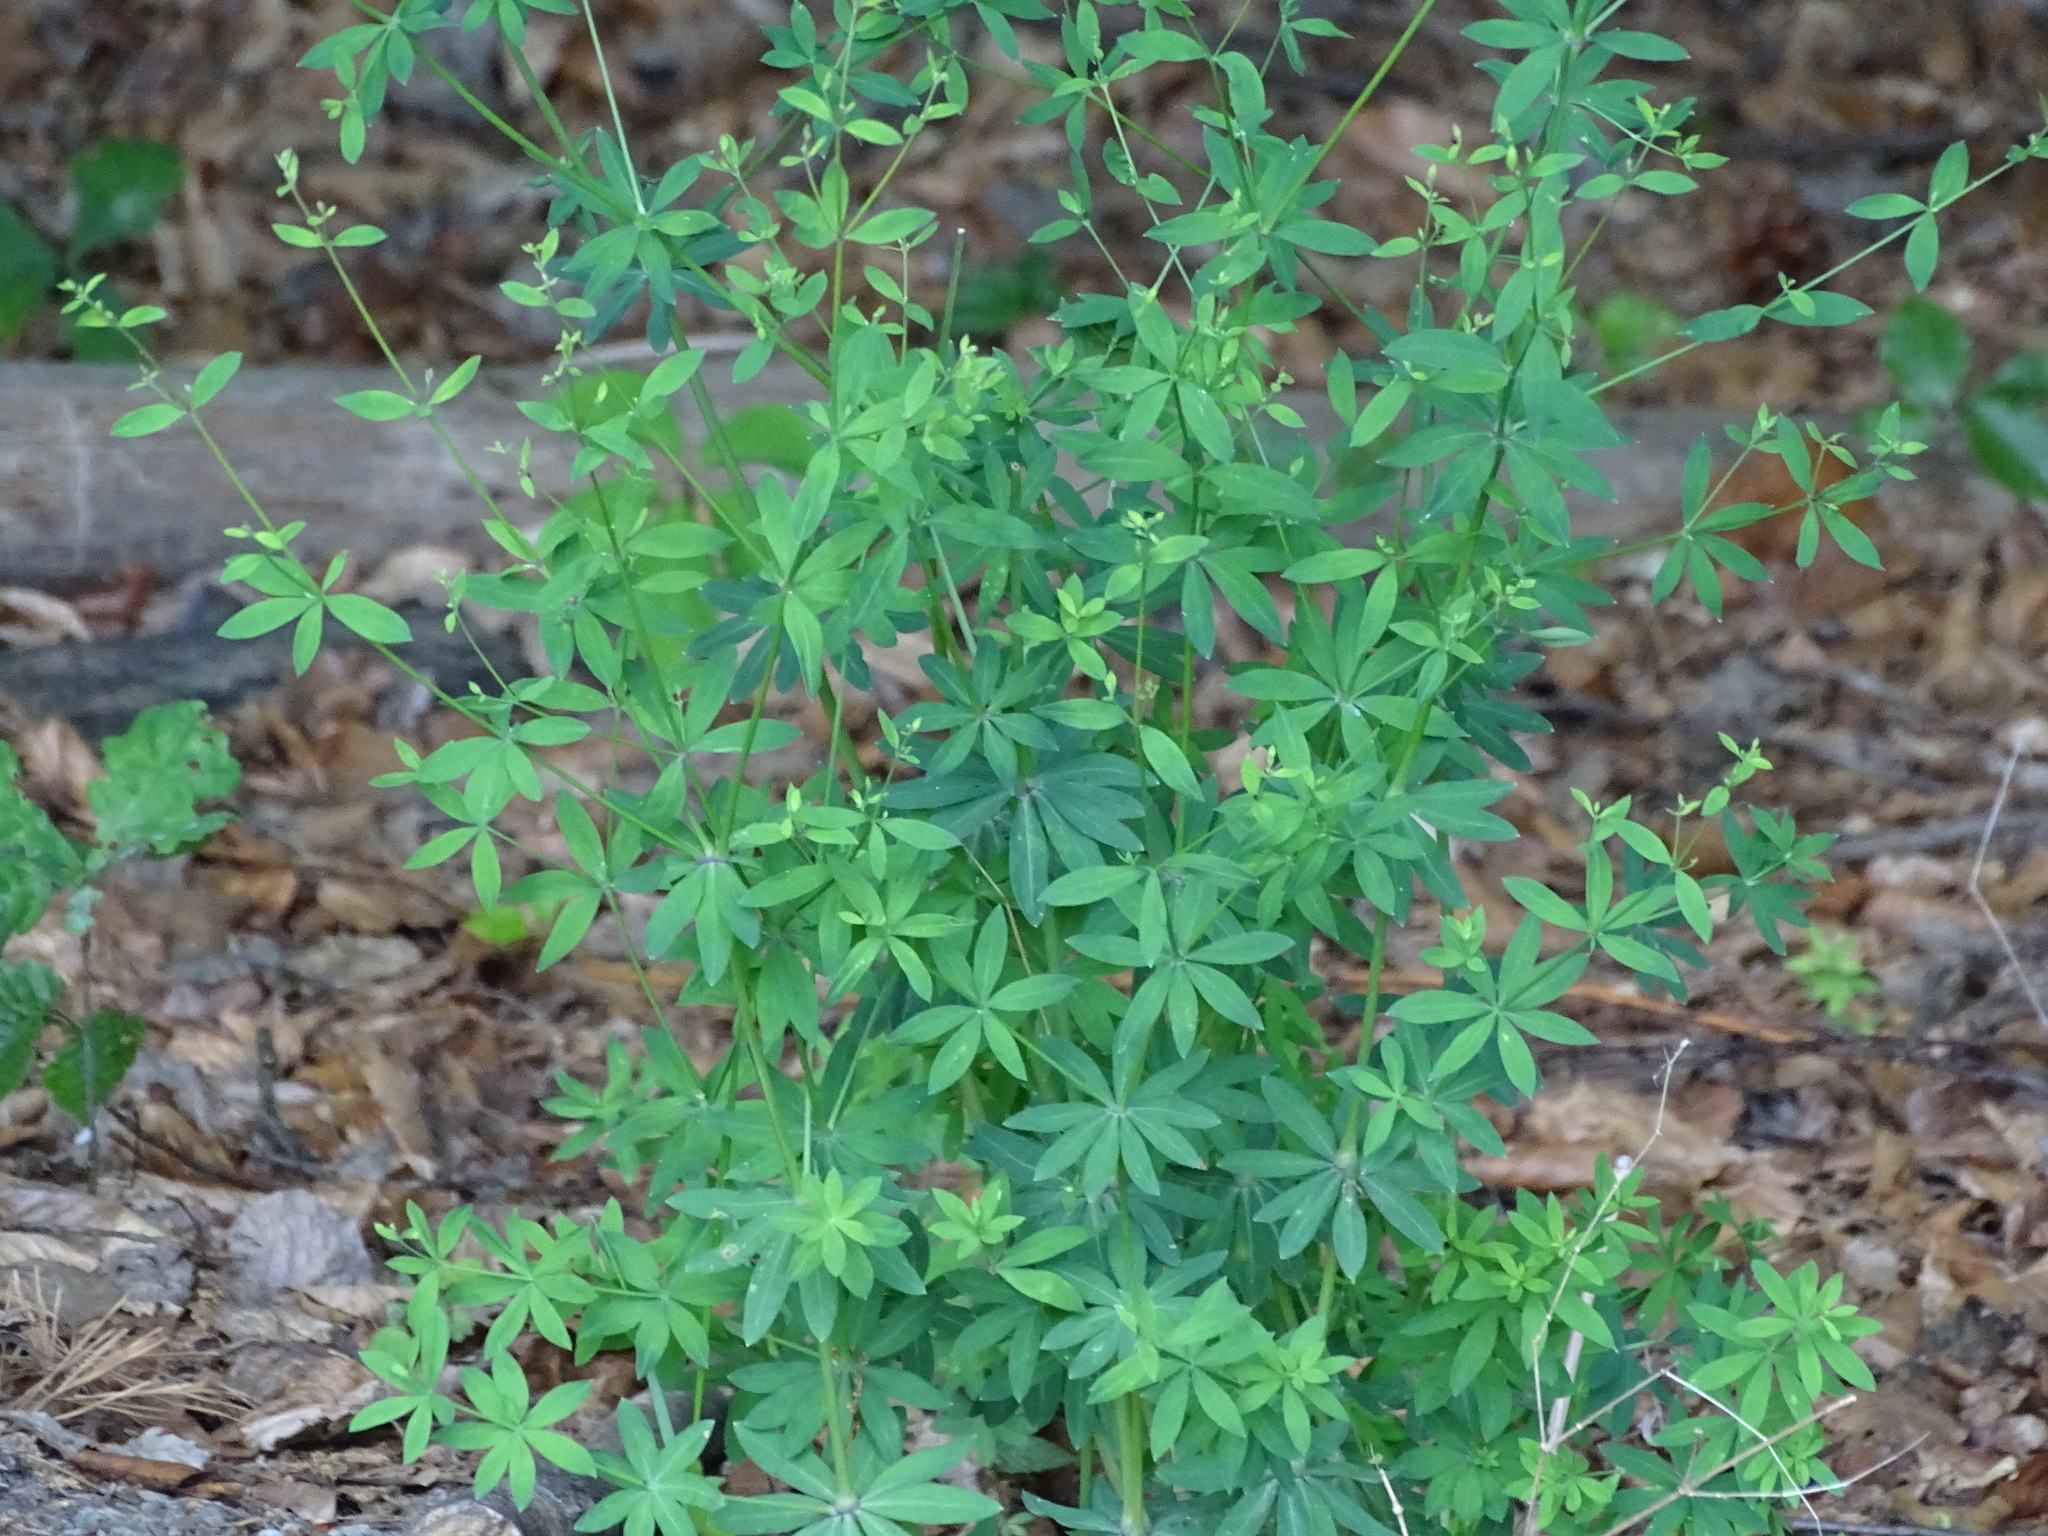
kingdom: Plantae
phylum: Tracheophyta
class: Magnoliopsida
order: Gentianales
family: Rubiaceae
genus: Galium
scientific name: Galium sylvaticum
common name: Wood bedstraw
